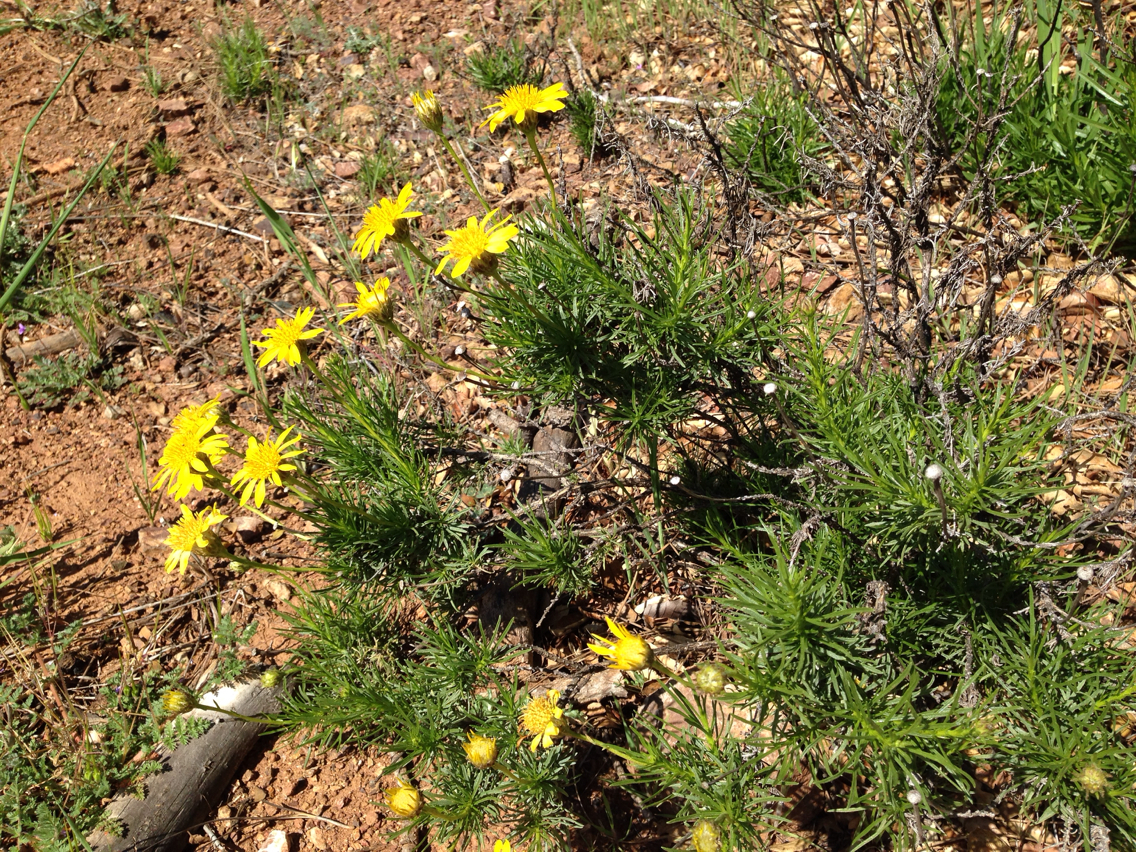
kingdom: Plantae
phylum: Tracheophyta
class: Magnoliopsida
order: Asterales
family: Asteraceae
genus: Ericameria
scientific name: Ericameria linearifolia
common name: Interior goldenbush
